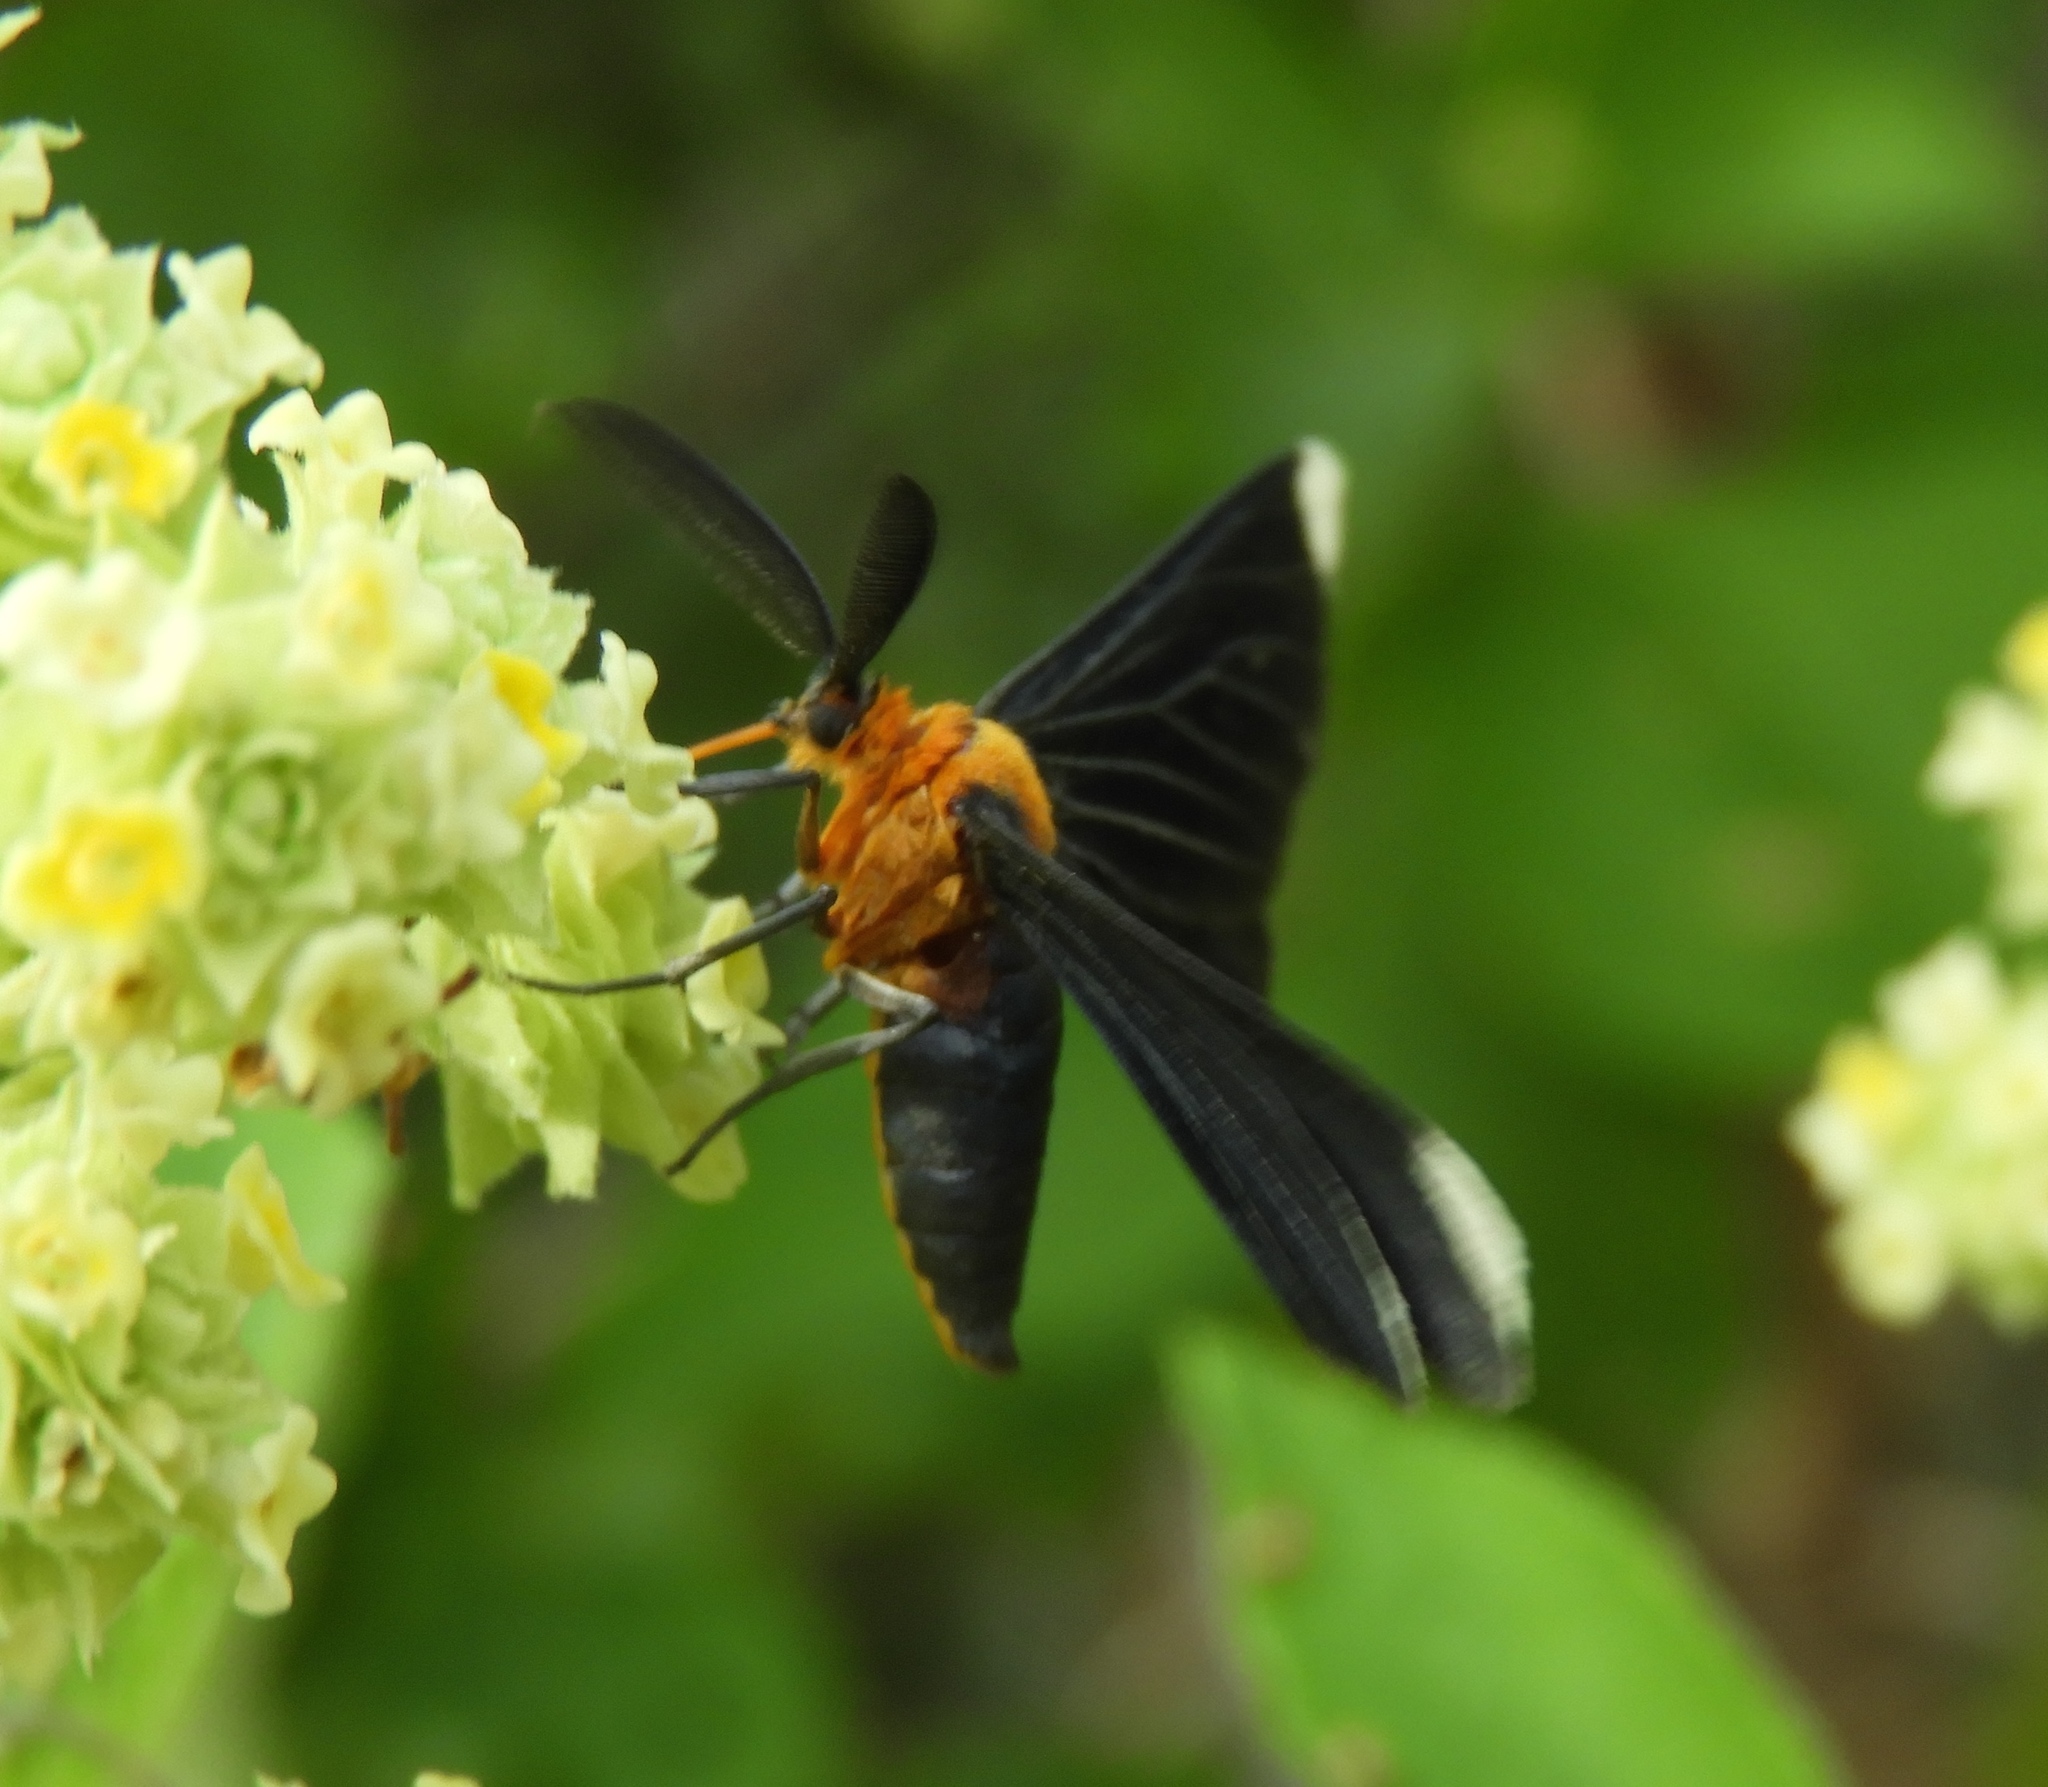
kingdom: Animalia
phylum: Arthropoda
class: Insecta
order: Lepidoptera
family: Geometridae
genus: Melanchroia
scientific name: Melanchroia chephise
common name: White-tipped black
